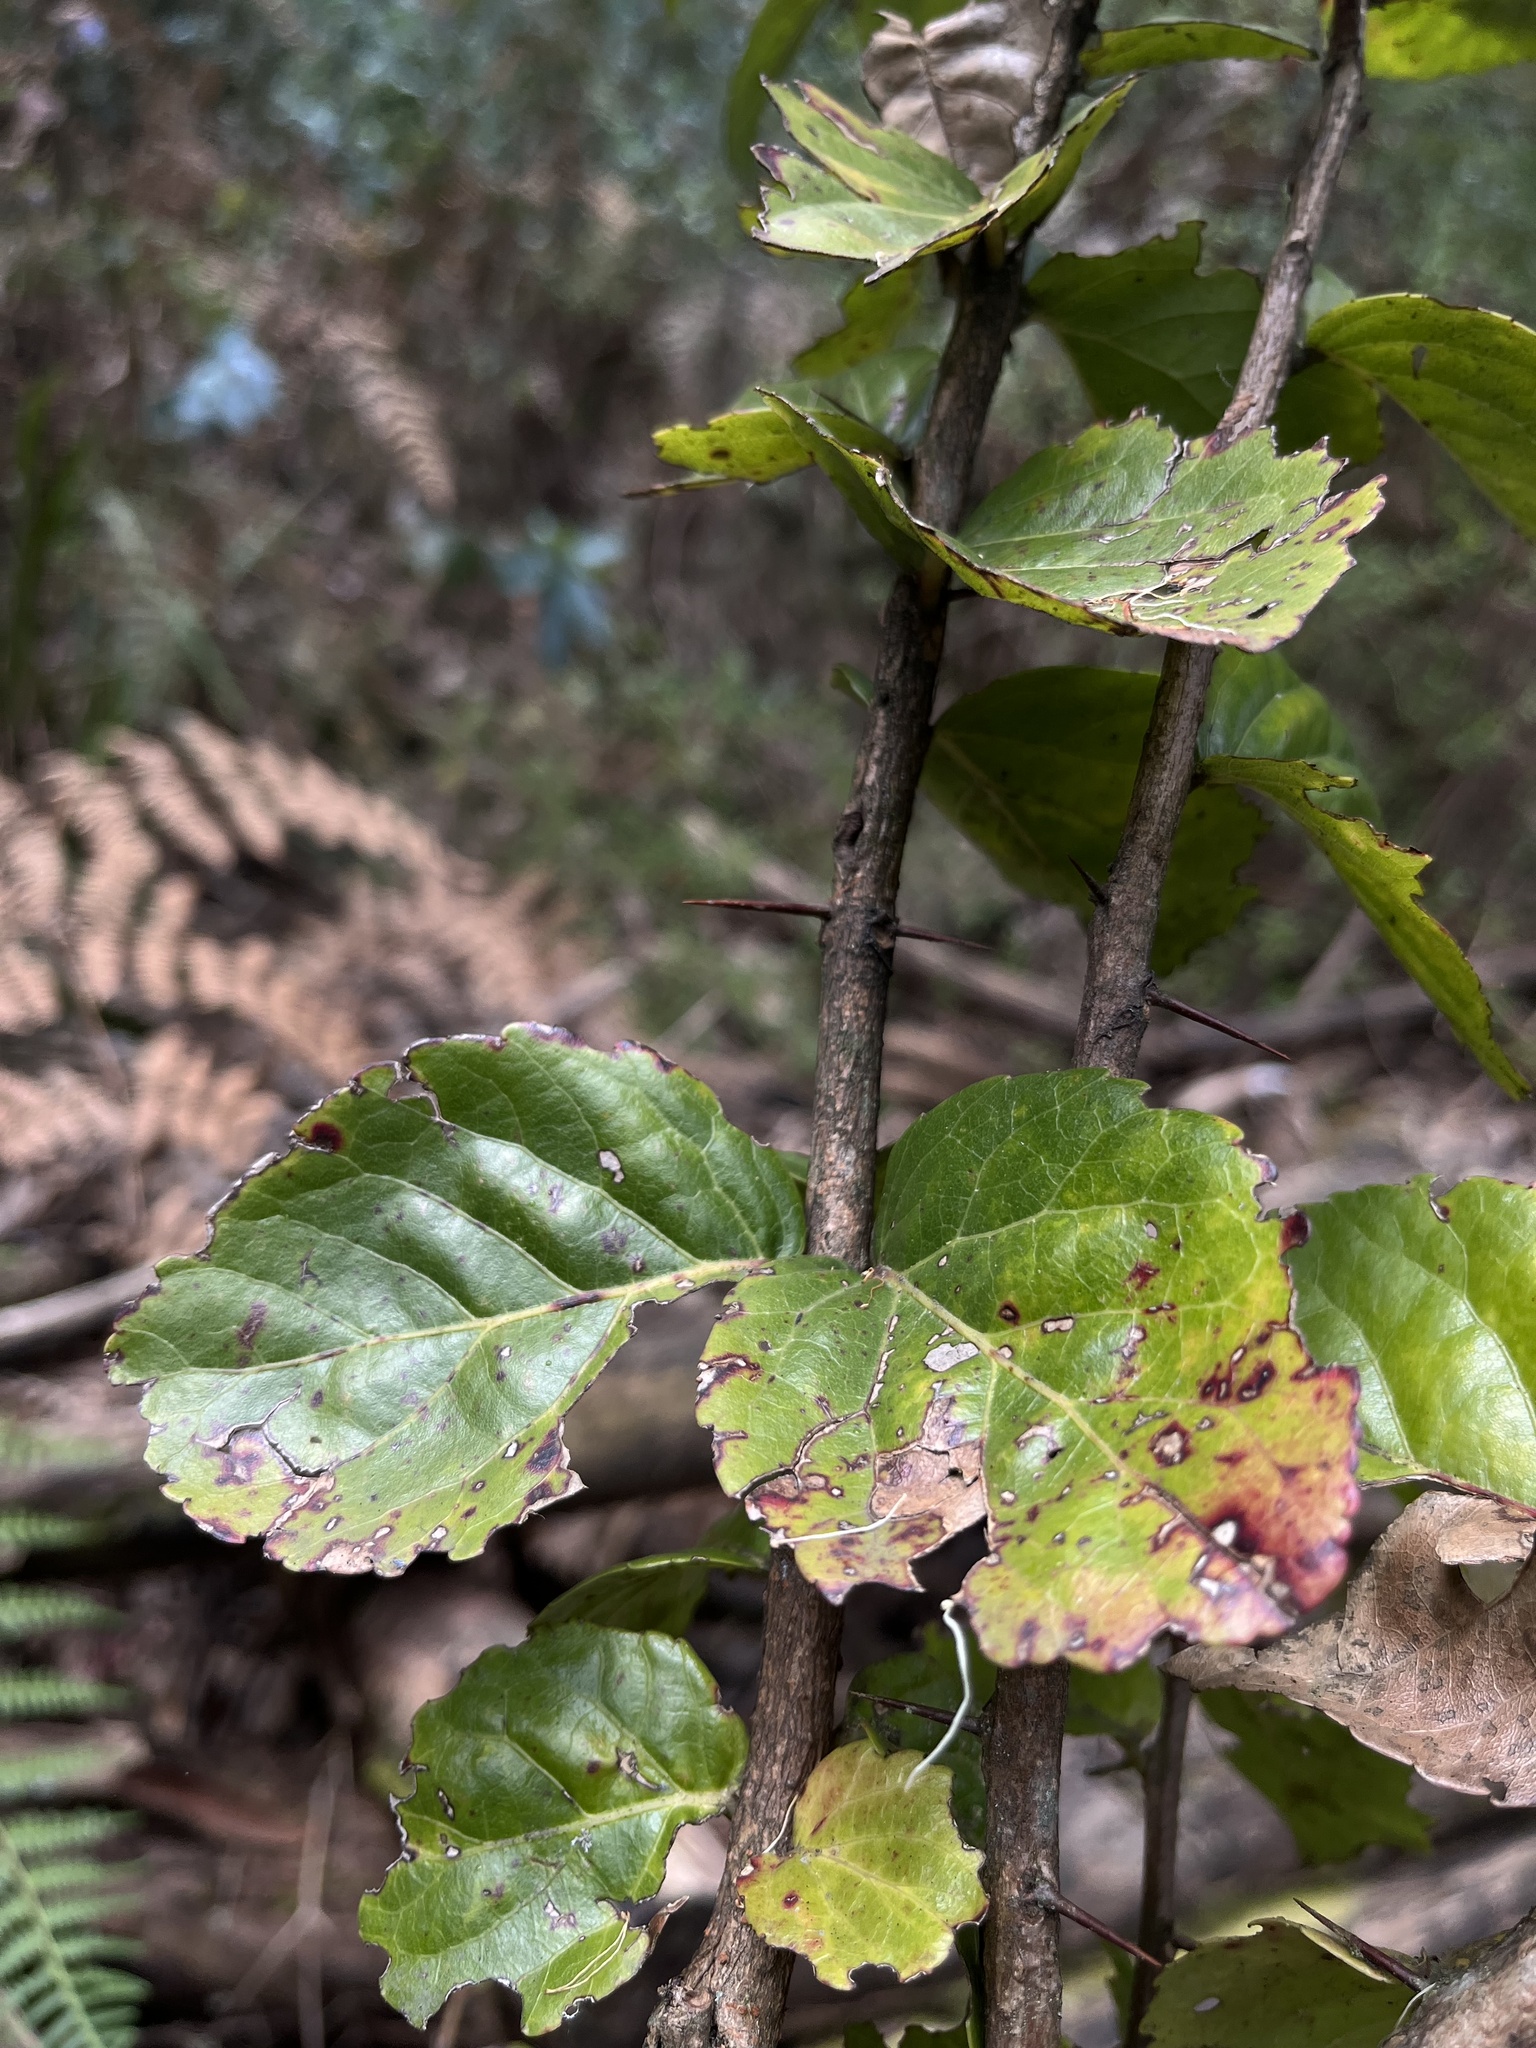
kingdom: Plantae
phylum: Tracheophyta
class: Magnoliopsida
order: Malpighiales
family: Salicaceae
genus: Xylosma
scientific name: Xylosma spiculifera
